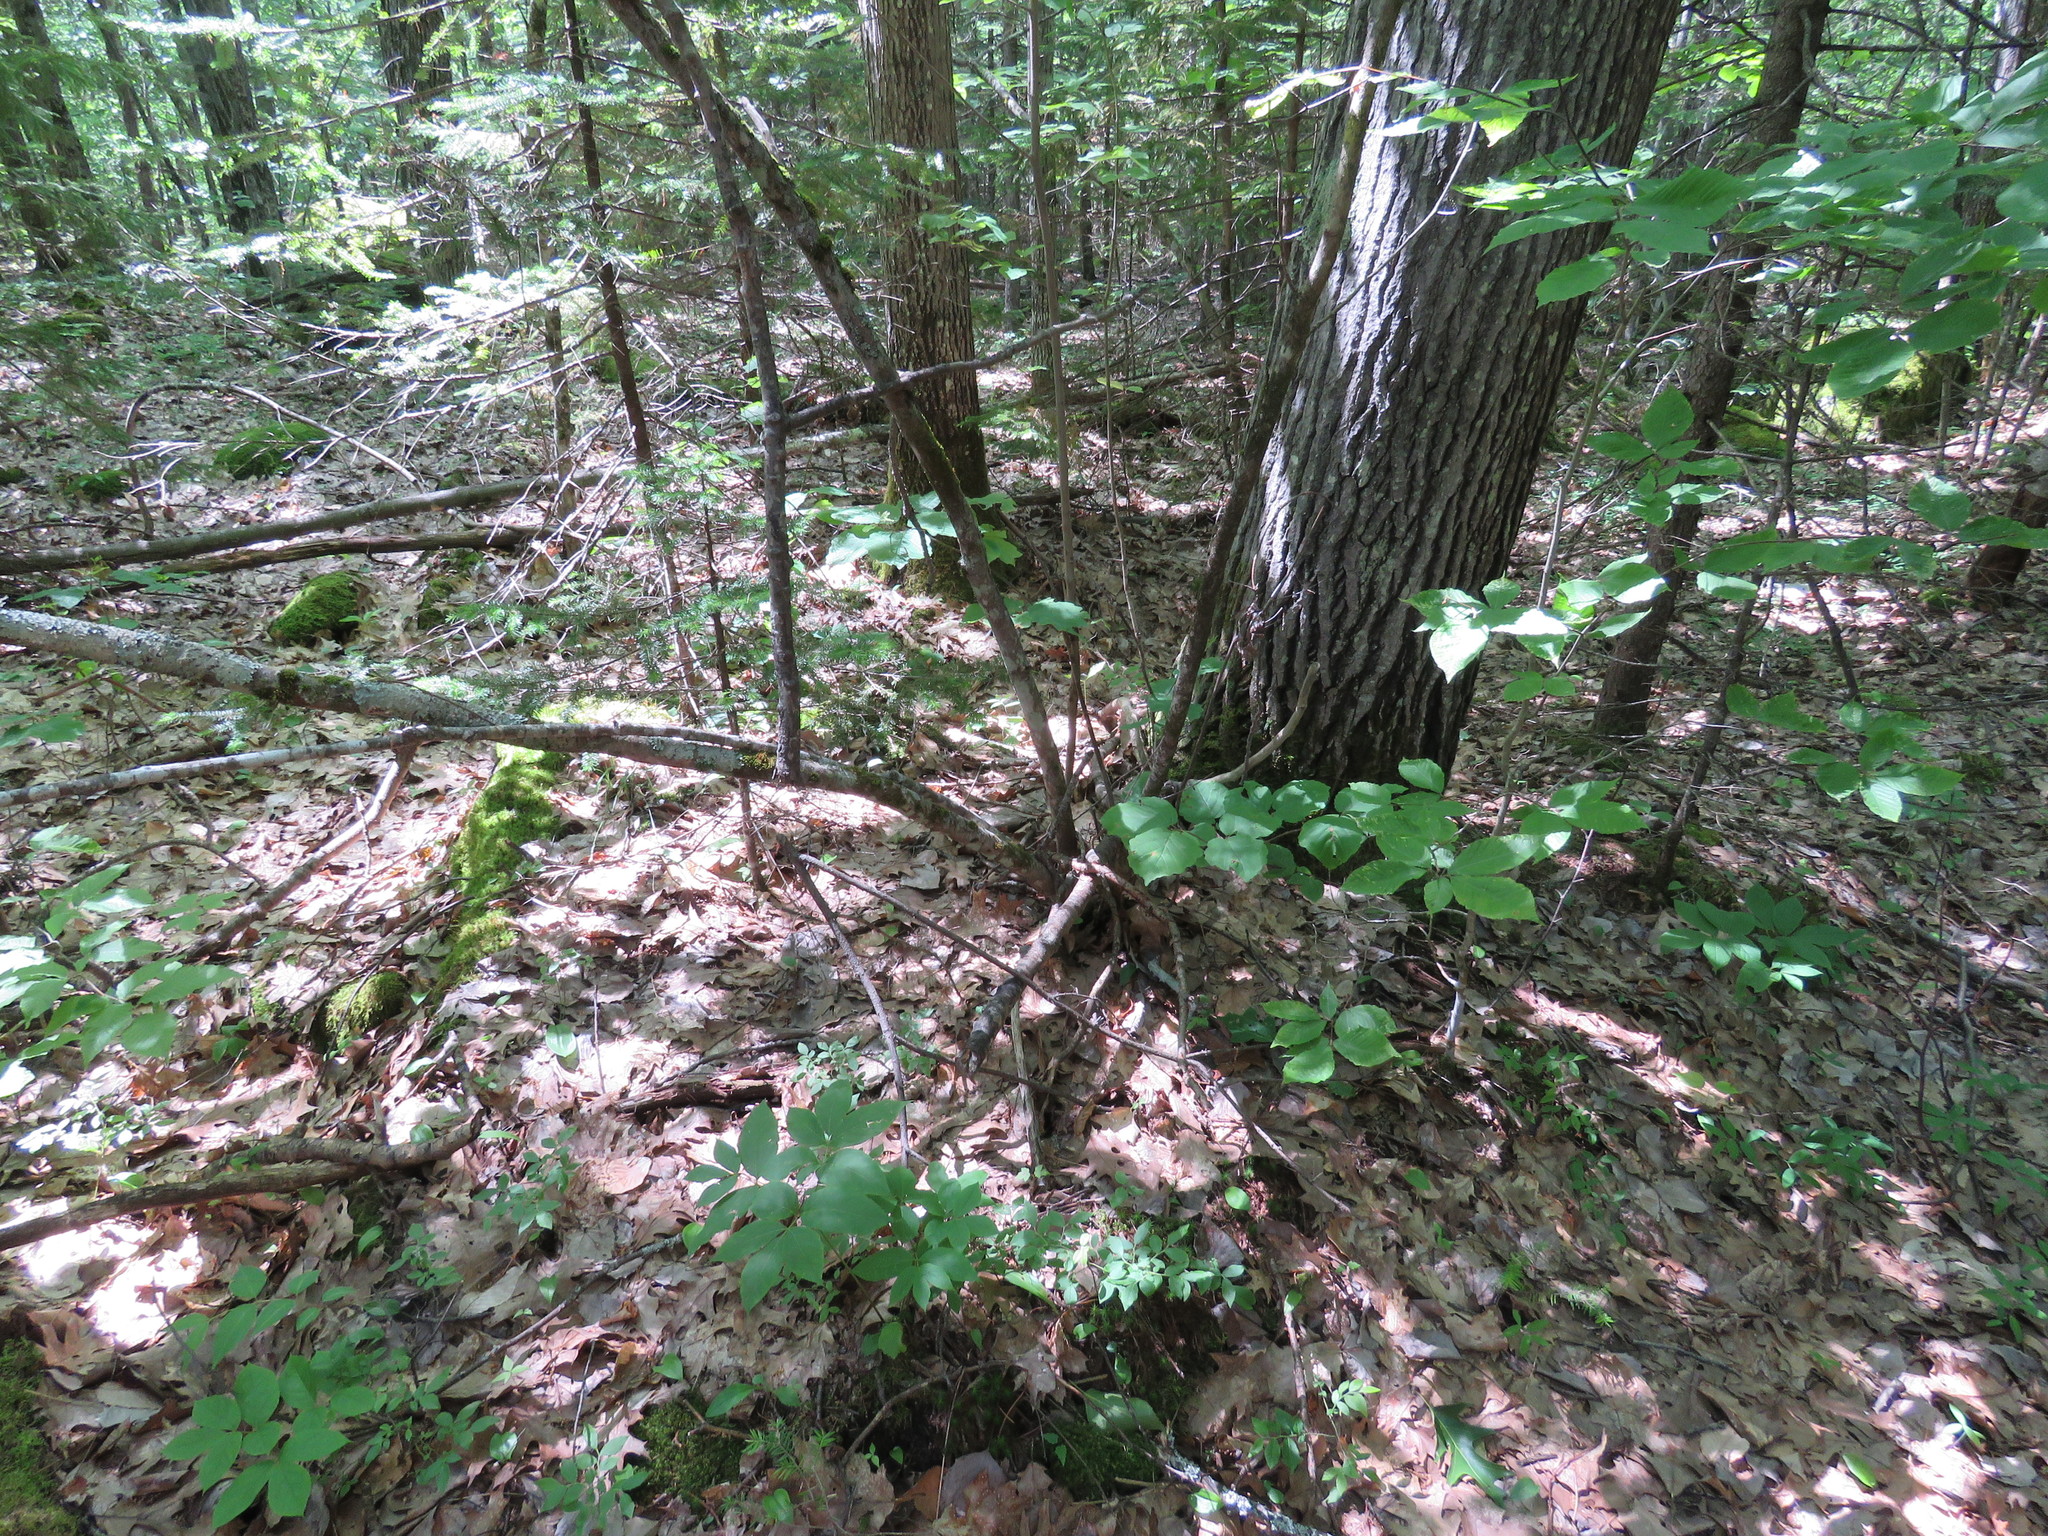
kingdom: Plantae
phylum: Tracheophyta
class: Magnoliopsida
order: Saxifragales
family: Hamamelidaceae
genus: Hamamelis
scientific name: Hamamelis virginiana
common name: Witch-hazel
